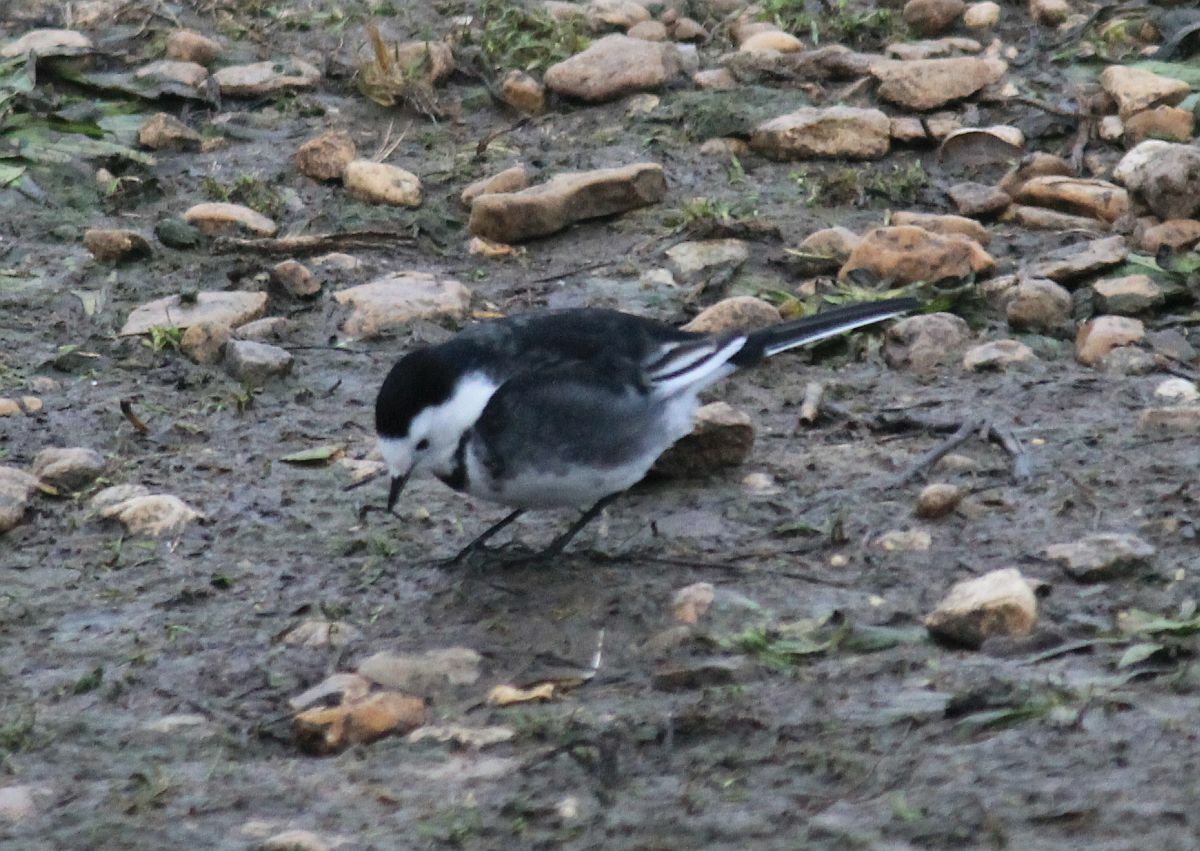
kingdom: Animalia
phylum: Chordata
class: Aves
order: Passeriformes
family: Motacillidae
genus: Motacilla
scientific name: Motacilla alba
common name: White wagtail
